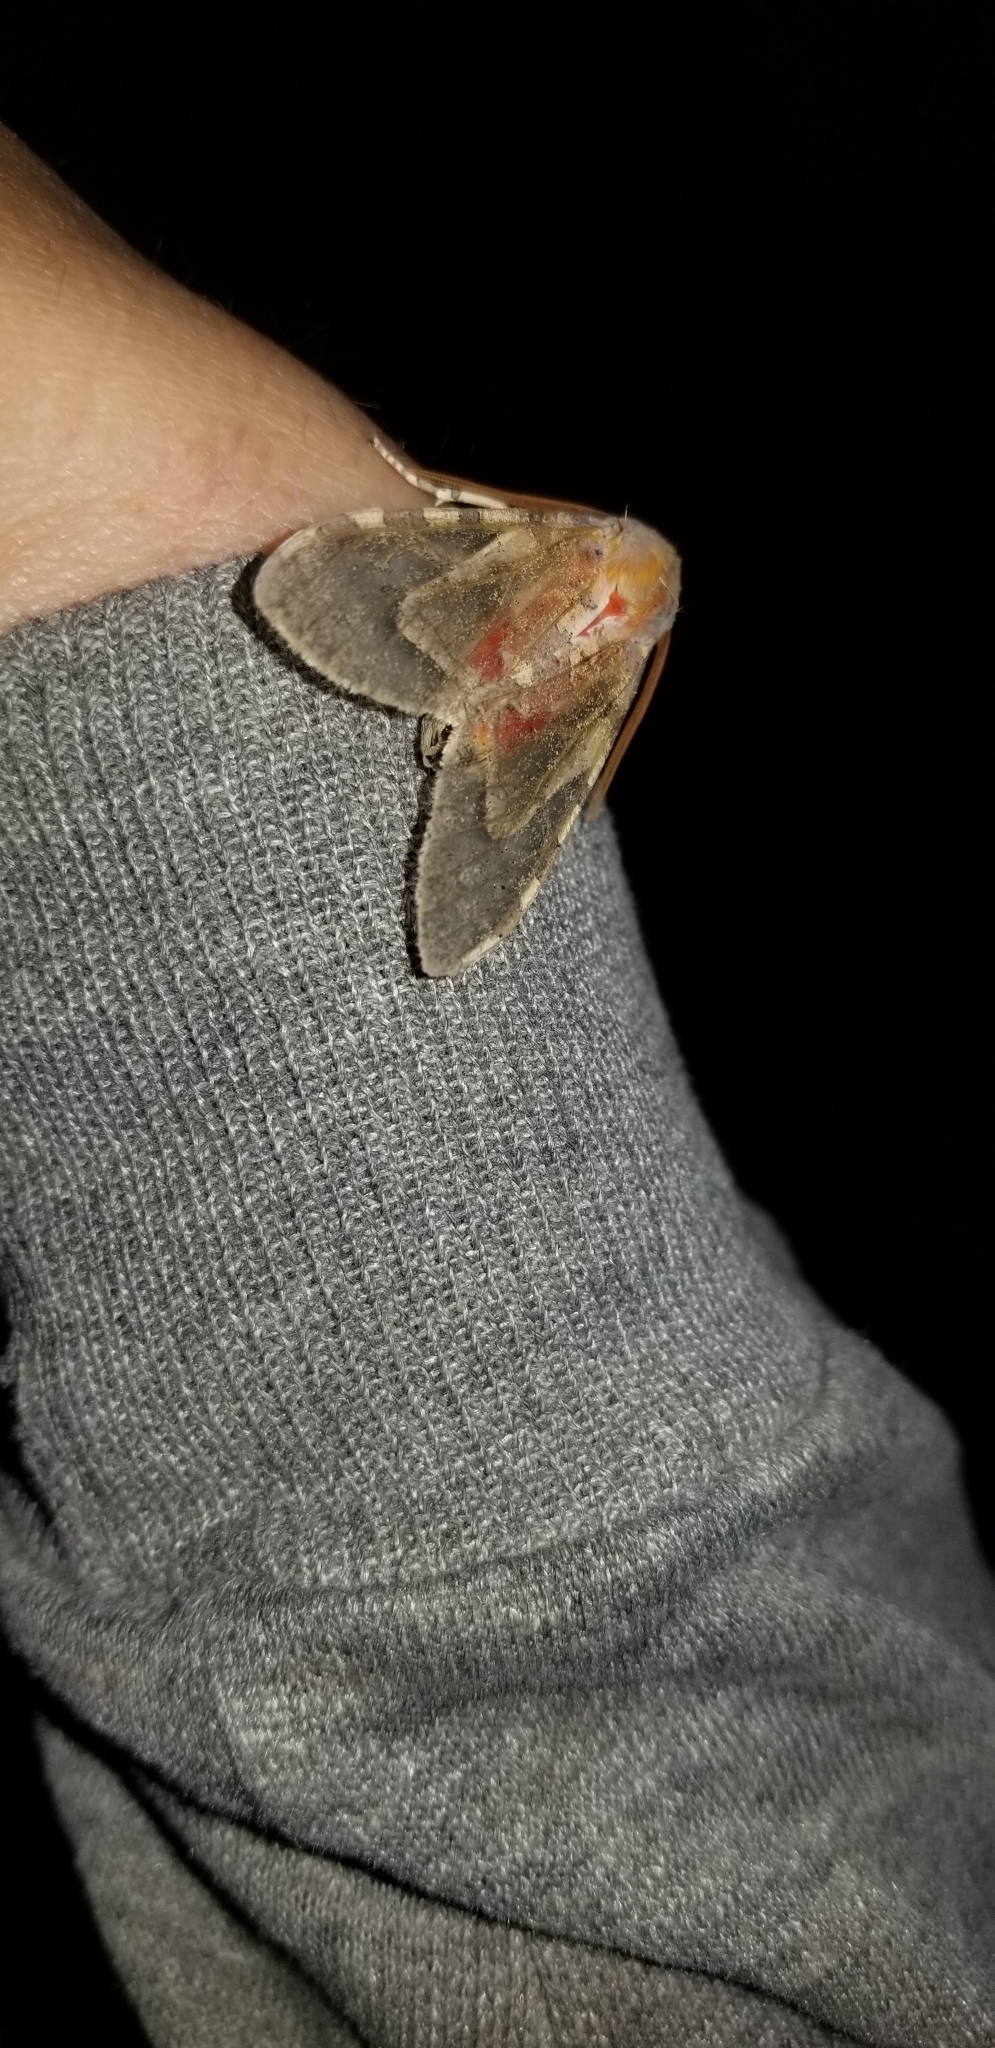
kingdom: Animalia
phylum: Arthropoda
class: Insecta
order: Lepidoptera
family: Erebidae
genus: Hemihyalea
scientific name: Hemihyalea edwardsii
